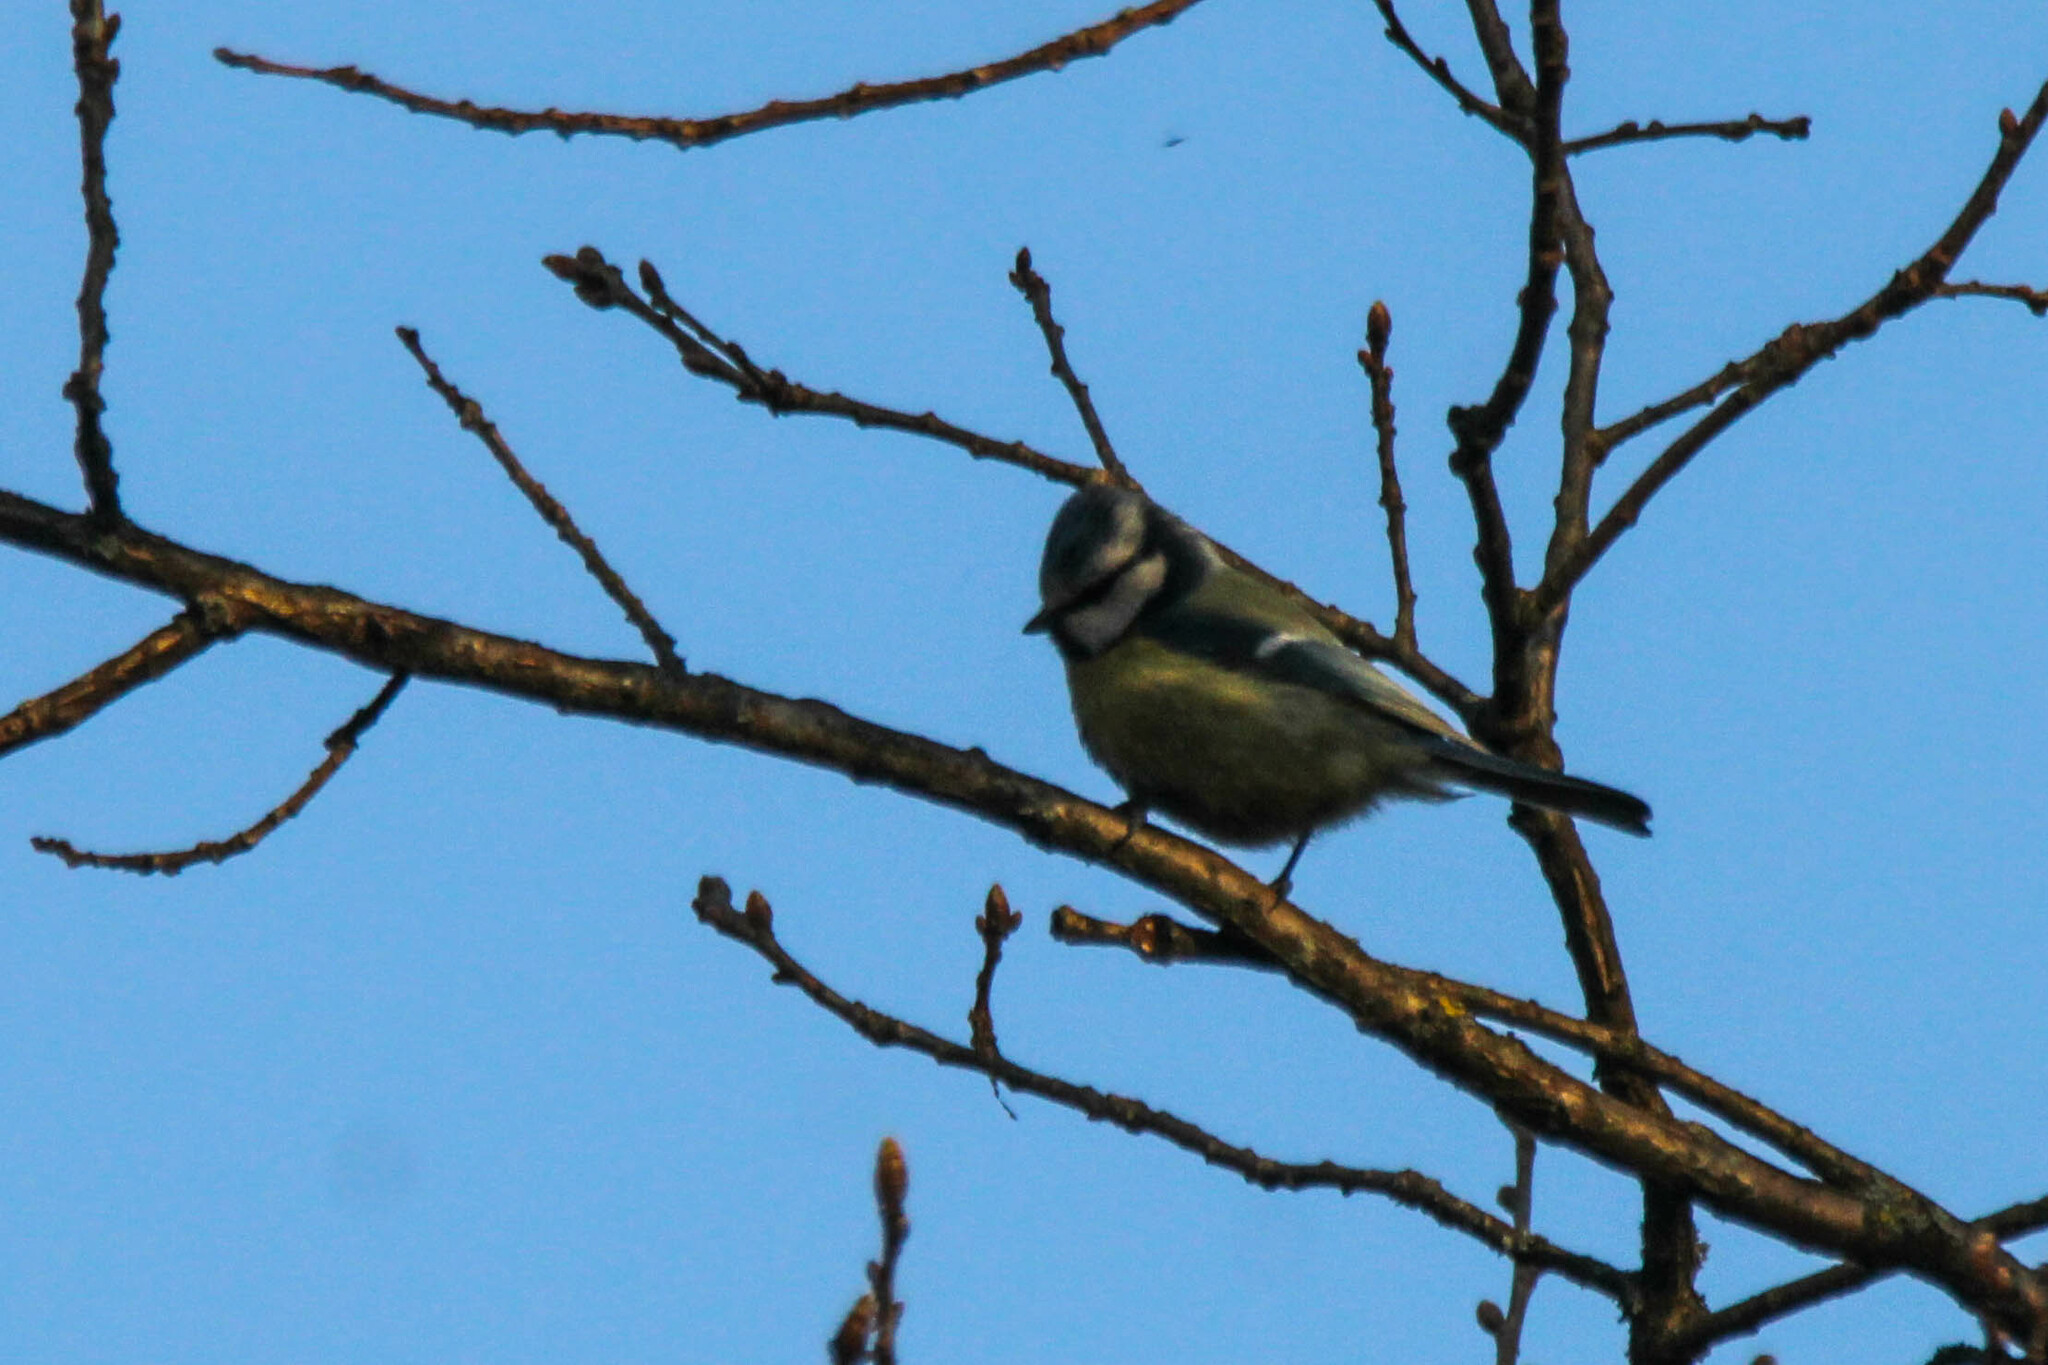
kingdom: Animalia
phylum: Chordata
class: Aves
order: Passeriformes
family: Paridae
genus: Cyanistes
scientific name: Cyanistes caeruleus
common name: Eurasian blue tit
